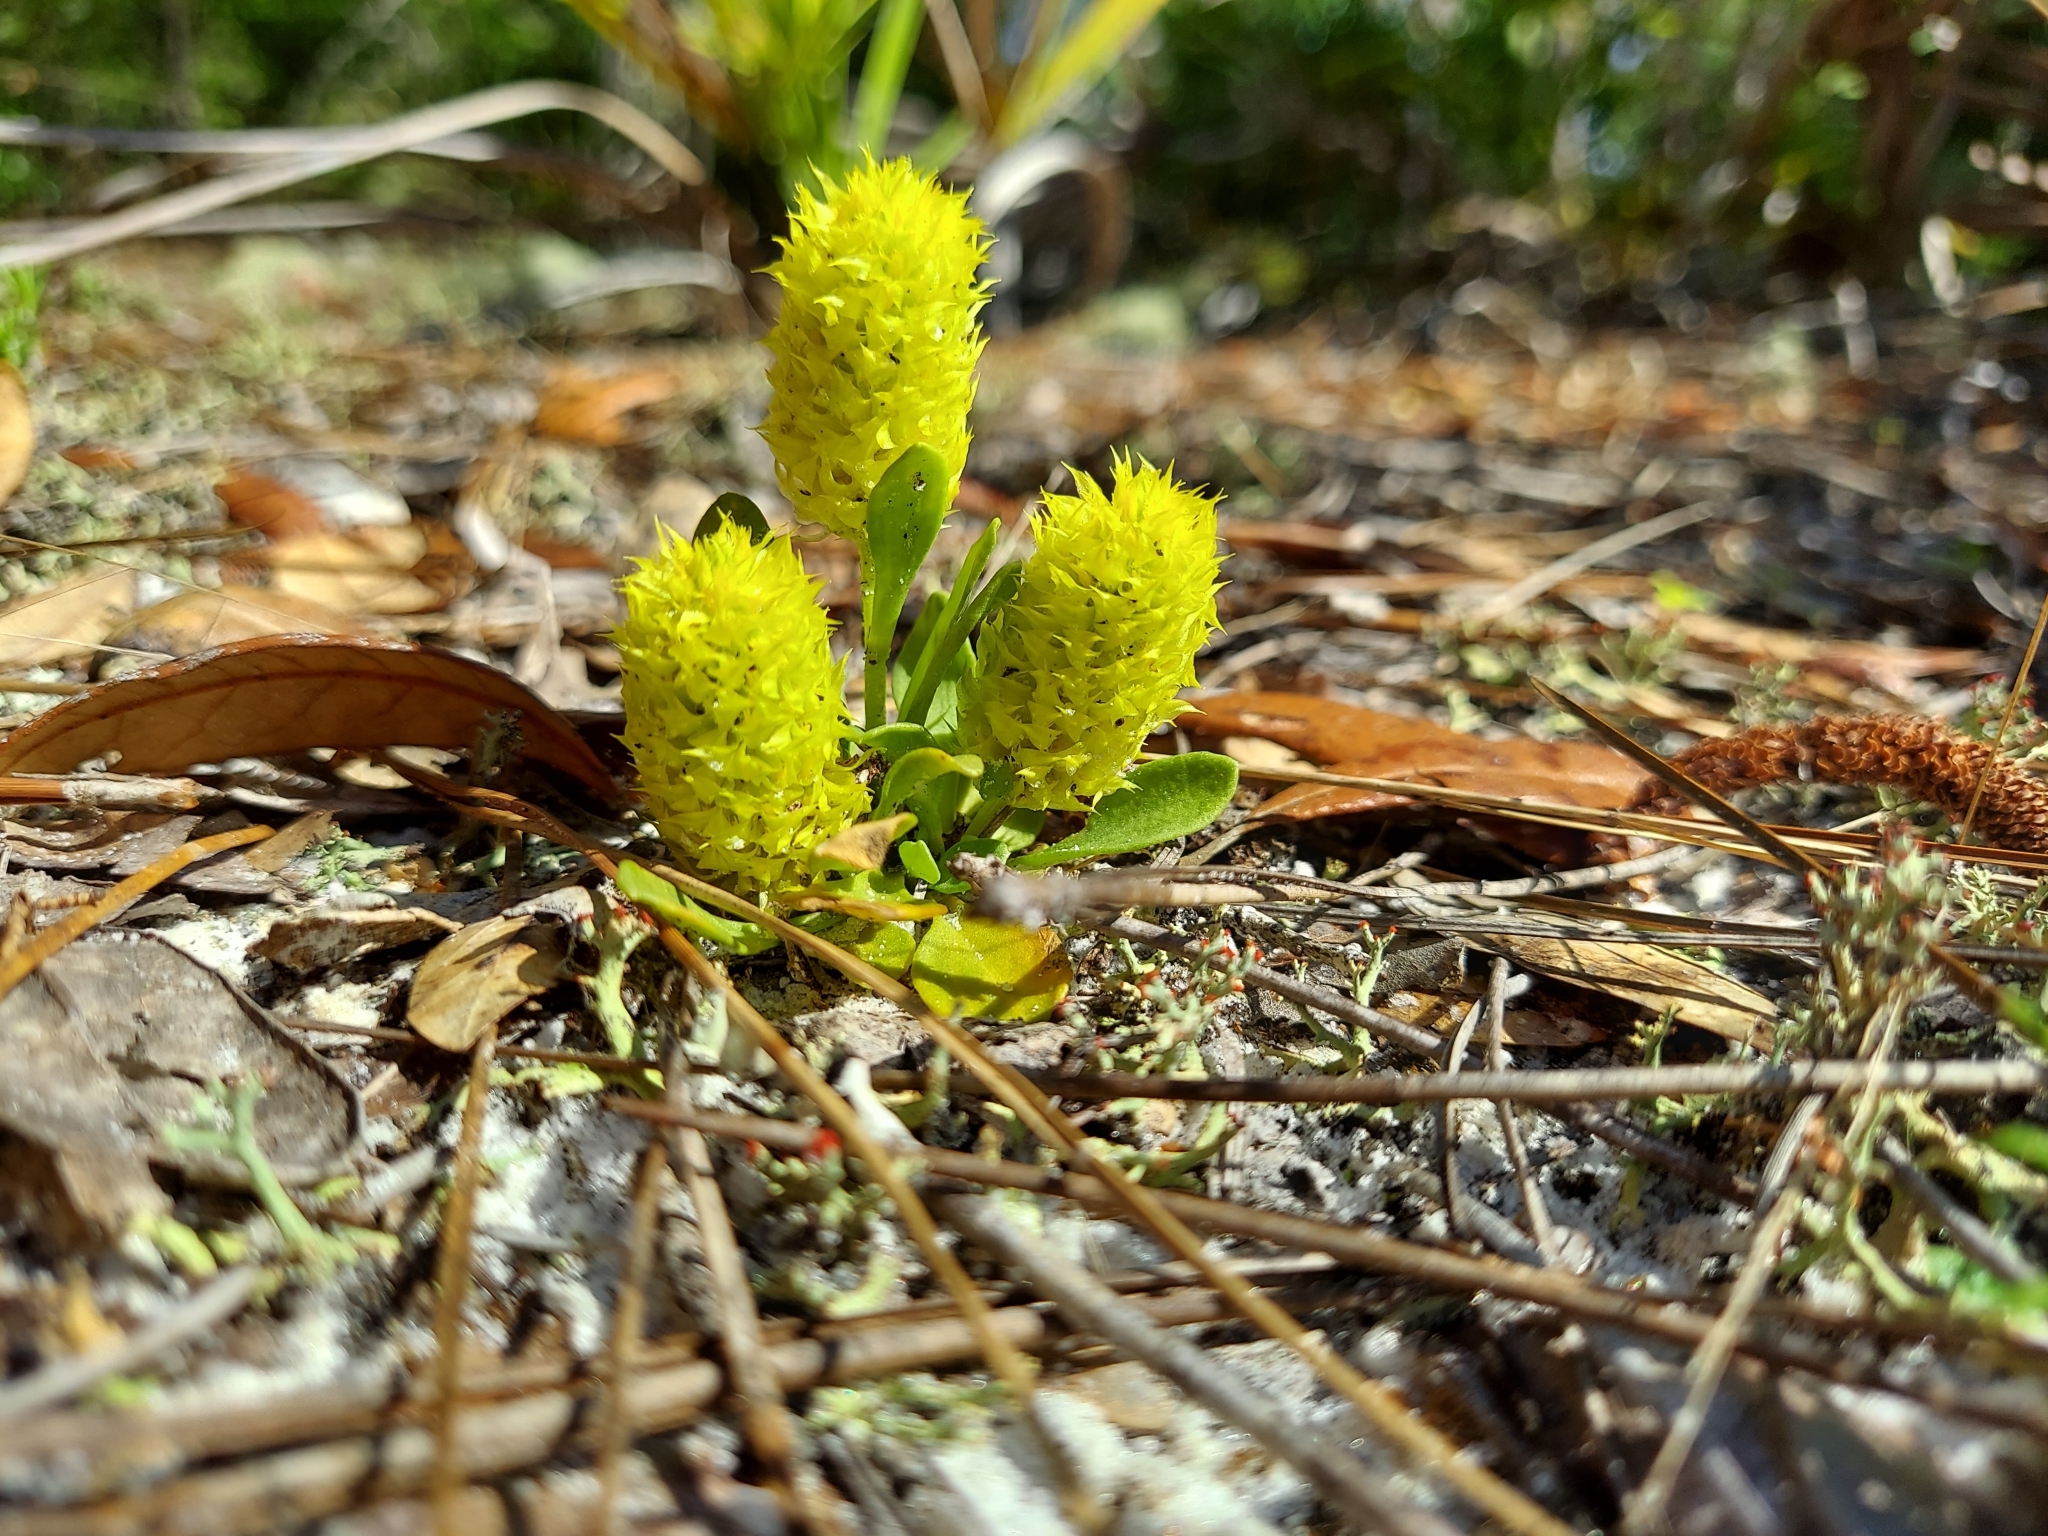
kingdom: Plantae
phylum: Tracheophyta
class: Magnoliopsida
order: Fabales
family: Polygalaceae
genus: Polygala
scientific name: Polygala nana
